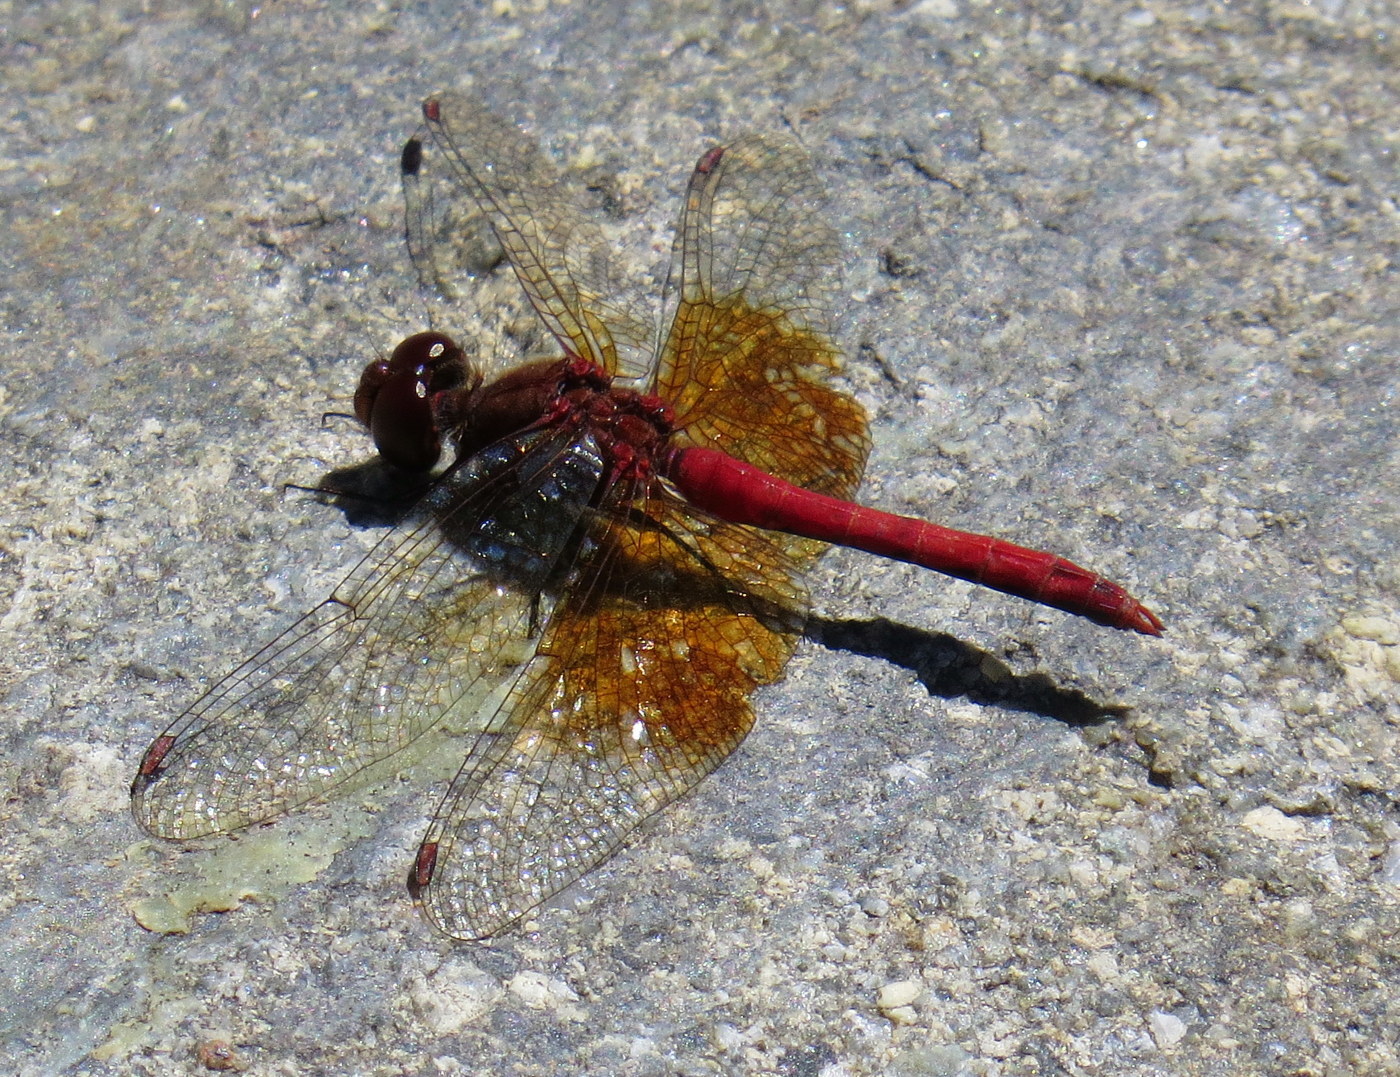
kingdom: Animalia
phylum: Arthropoda
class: Insecta
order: Odonata
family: Libellulidae
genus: Sympetrum
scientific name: Sympetrum semicinctum
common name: Band-winged meadowhawk
